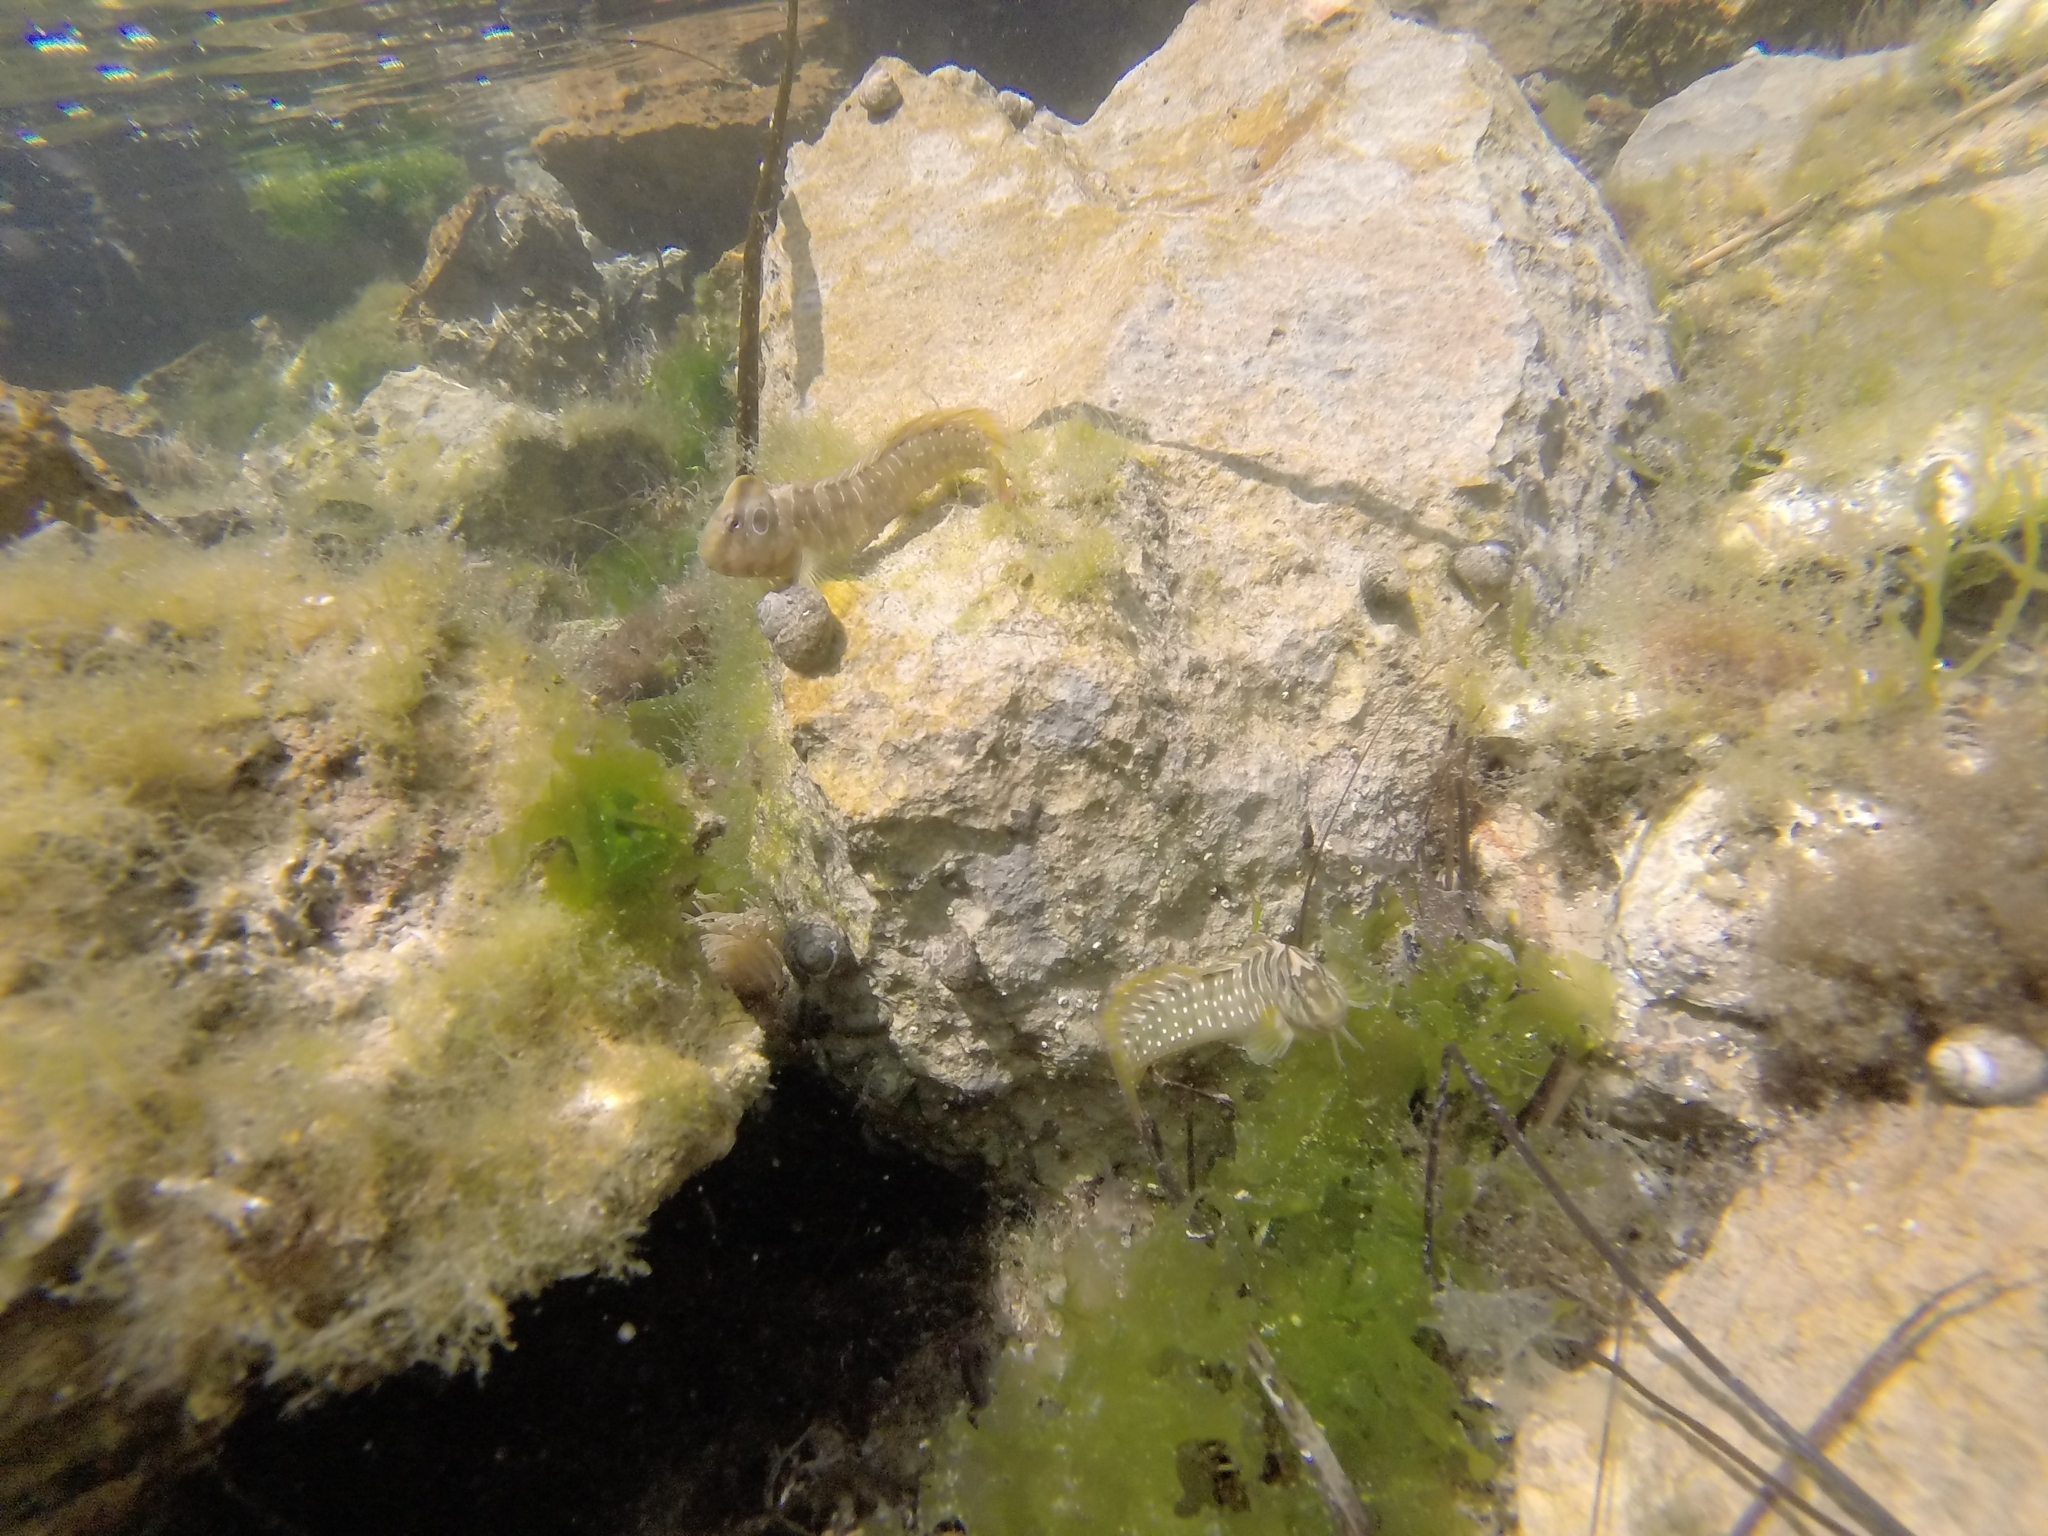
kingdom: Animalia
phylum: Chordata
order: Perciformes
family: Blenniidae
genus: Salaria
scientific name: Salaria pavo
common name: Peacock blenny
